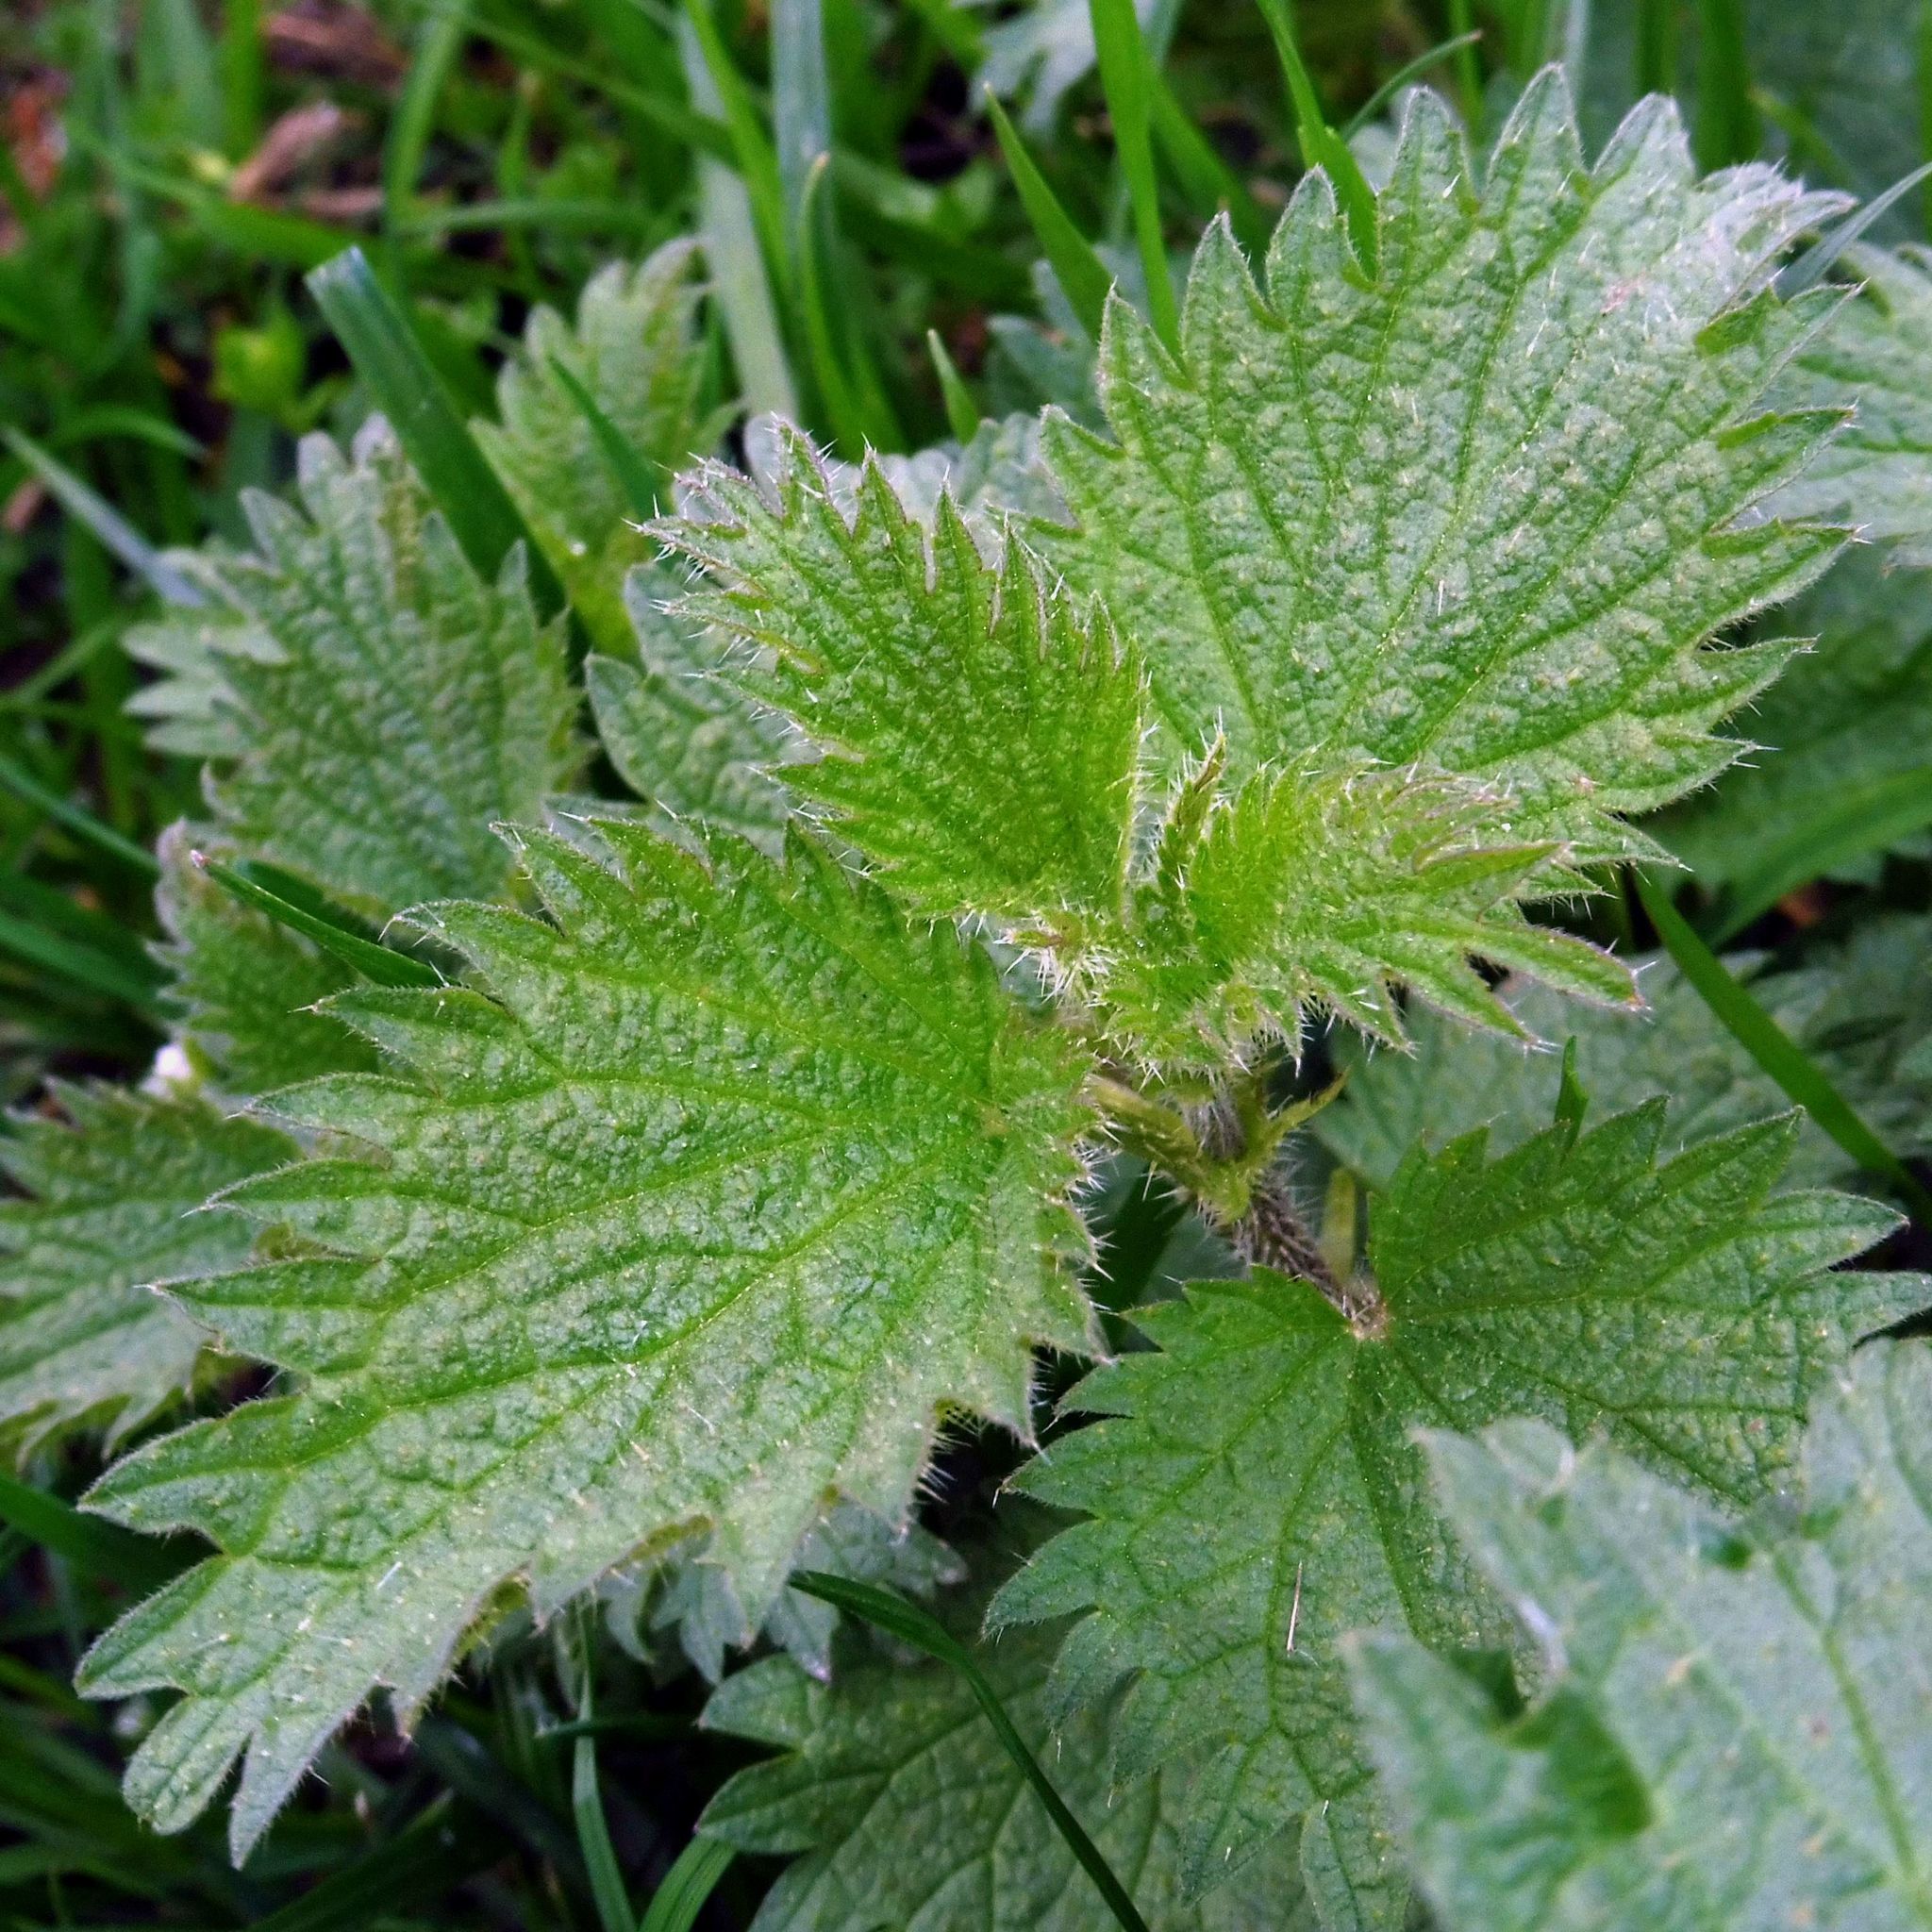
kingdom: Plantae
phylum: Tracheophyta
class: Magnoliopsida
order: Rosales
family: Urticaceae
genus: Urtica
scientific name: Urtica dioica
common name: Common nettle
